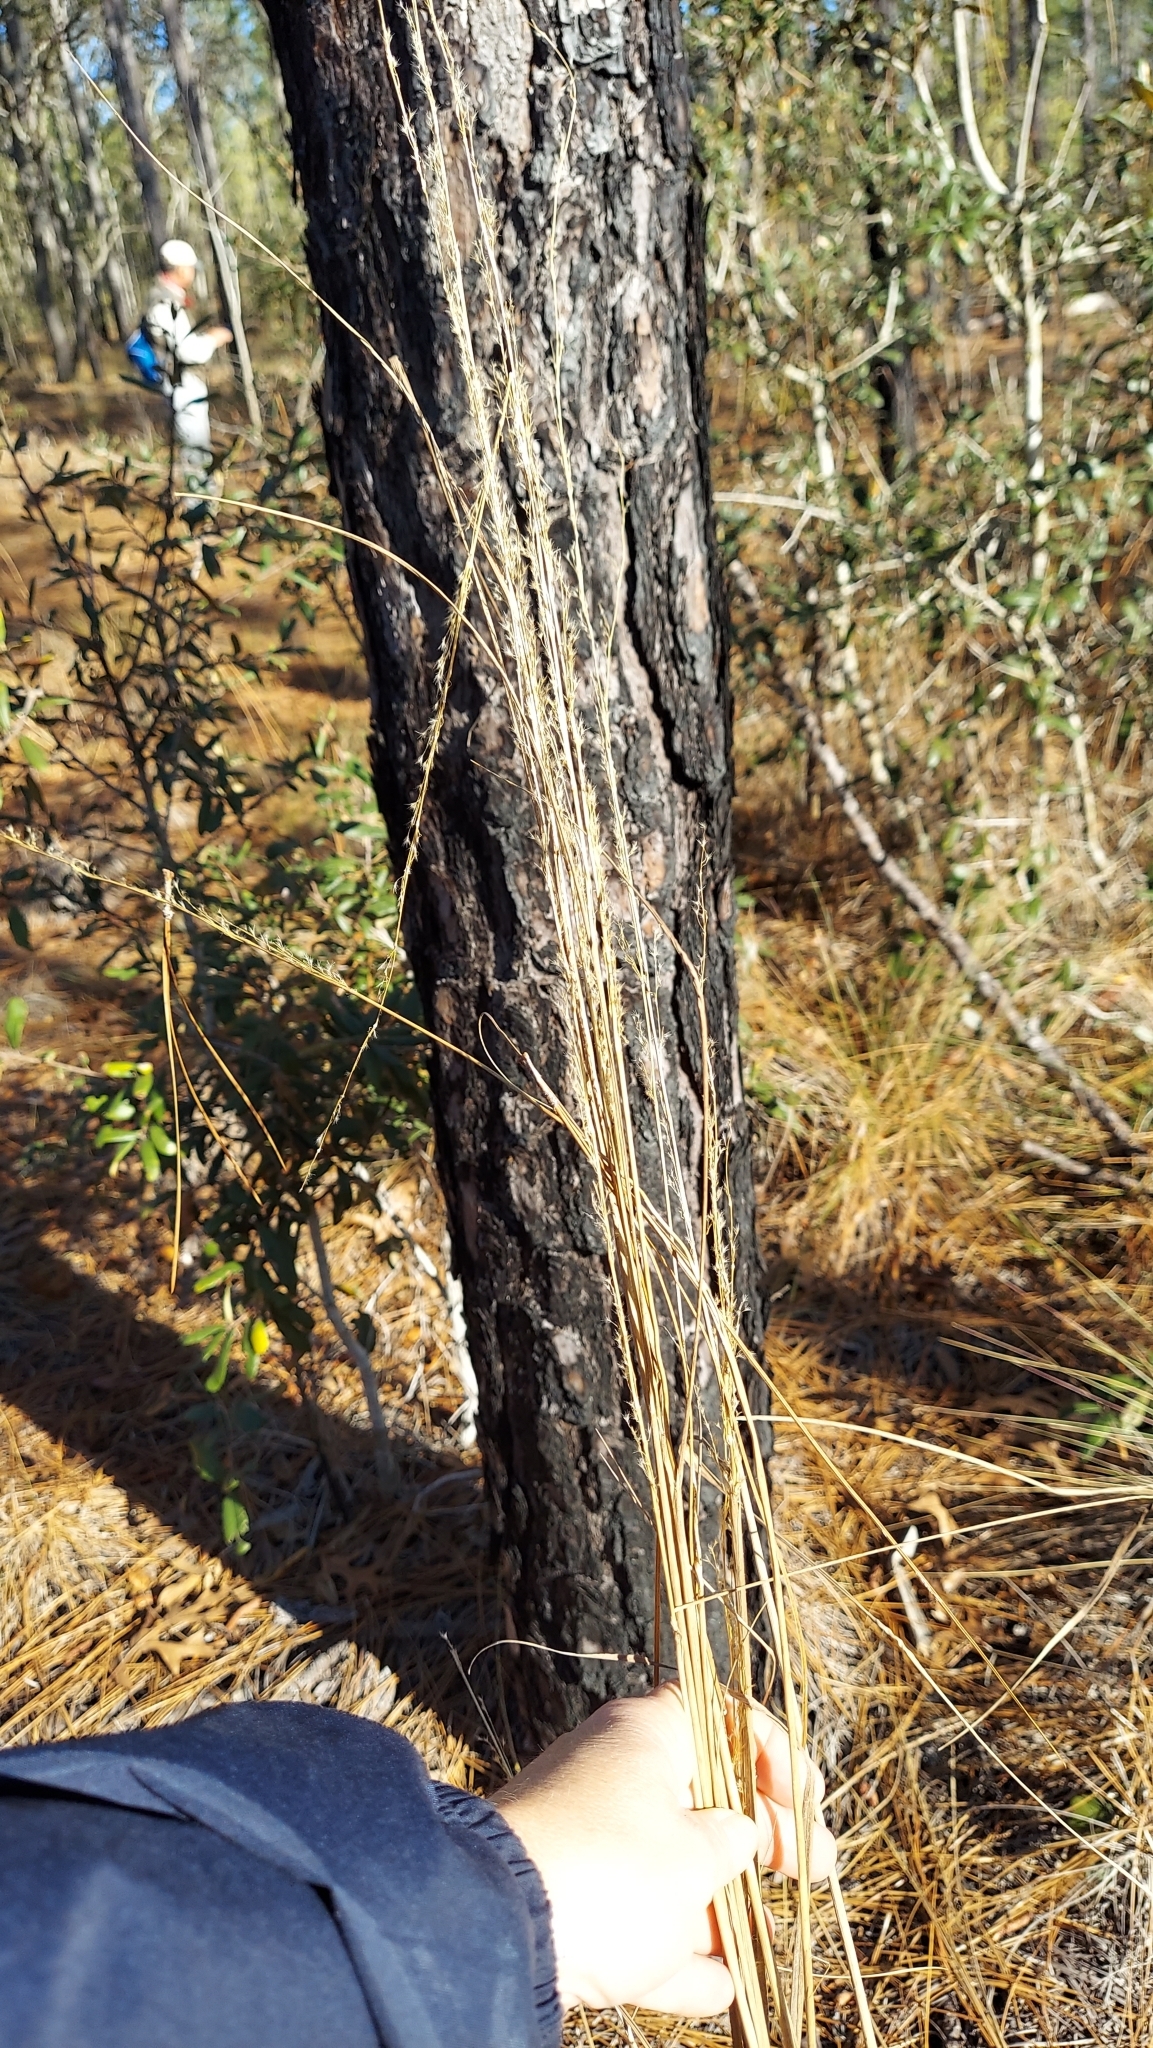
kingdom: Plantae
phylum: Tracheophyta
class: Liliopsida
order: Poales
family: Poaceae
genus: Sorghastrum
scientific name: Sorghastrum secundum
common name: Lopsided indian grass
